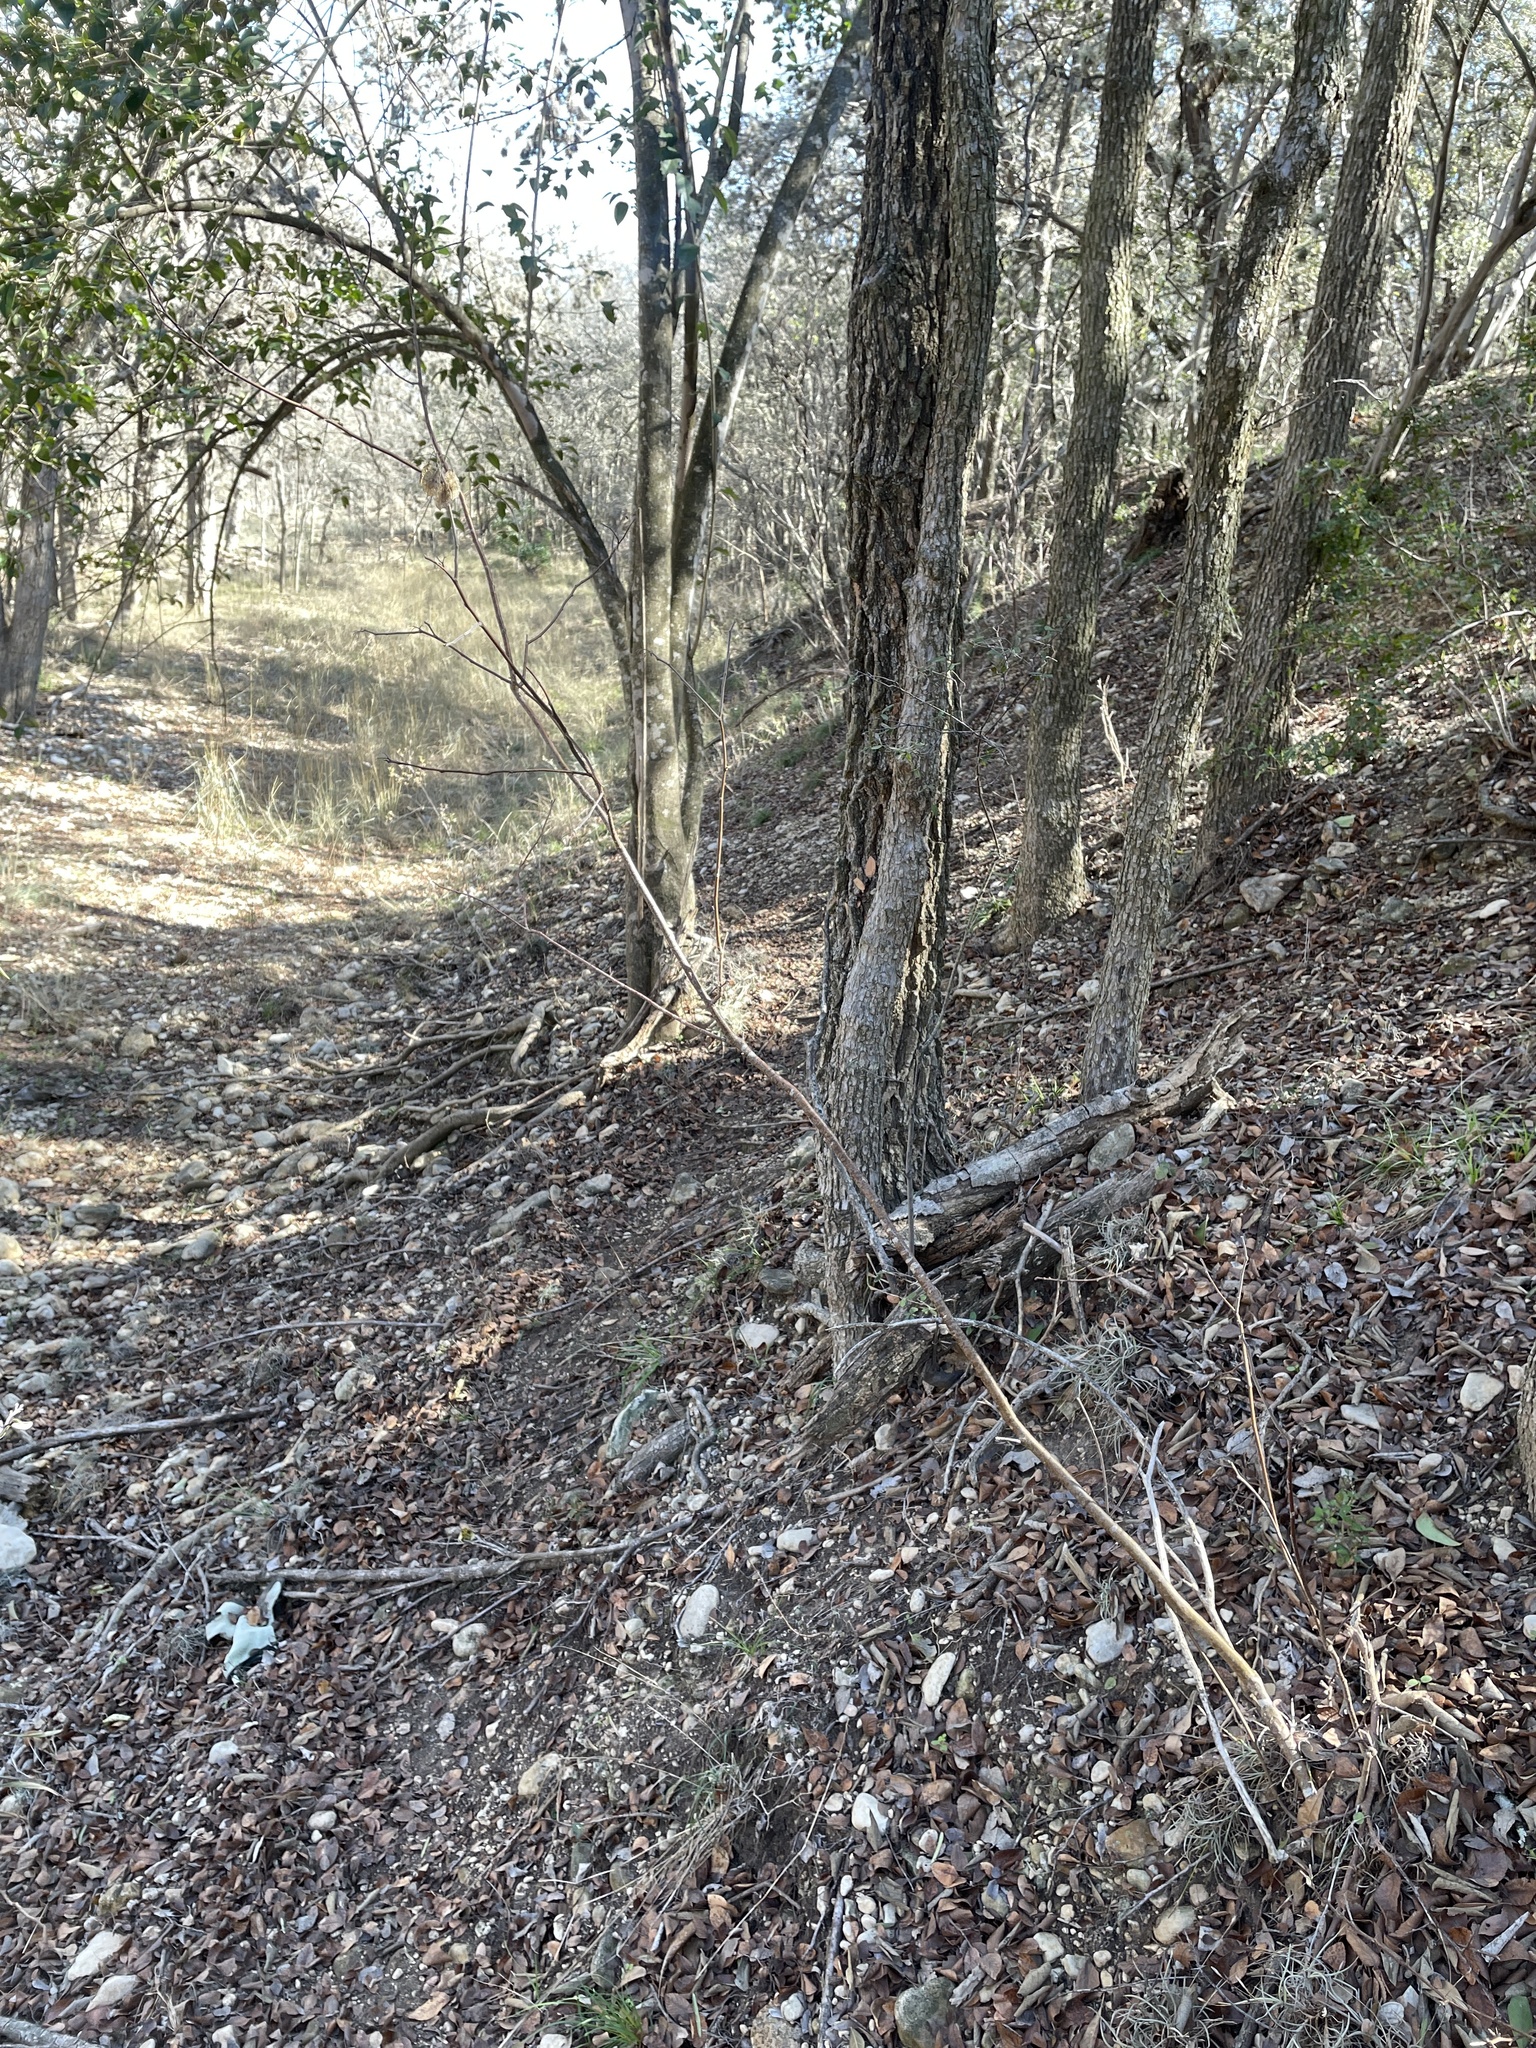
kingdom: Plantae
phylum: Tracheophyta
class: Magnoliopsida
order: Sapindales
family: Rutaceae
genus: Ptelea
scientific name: Ptelea trifoliata
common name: Common hop-tree
